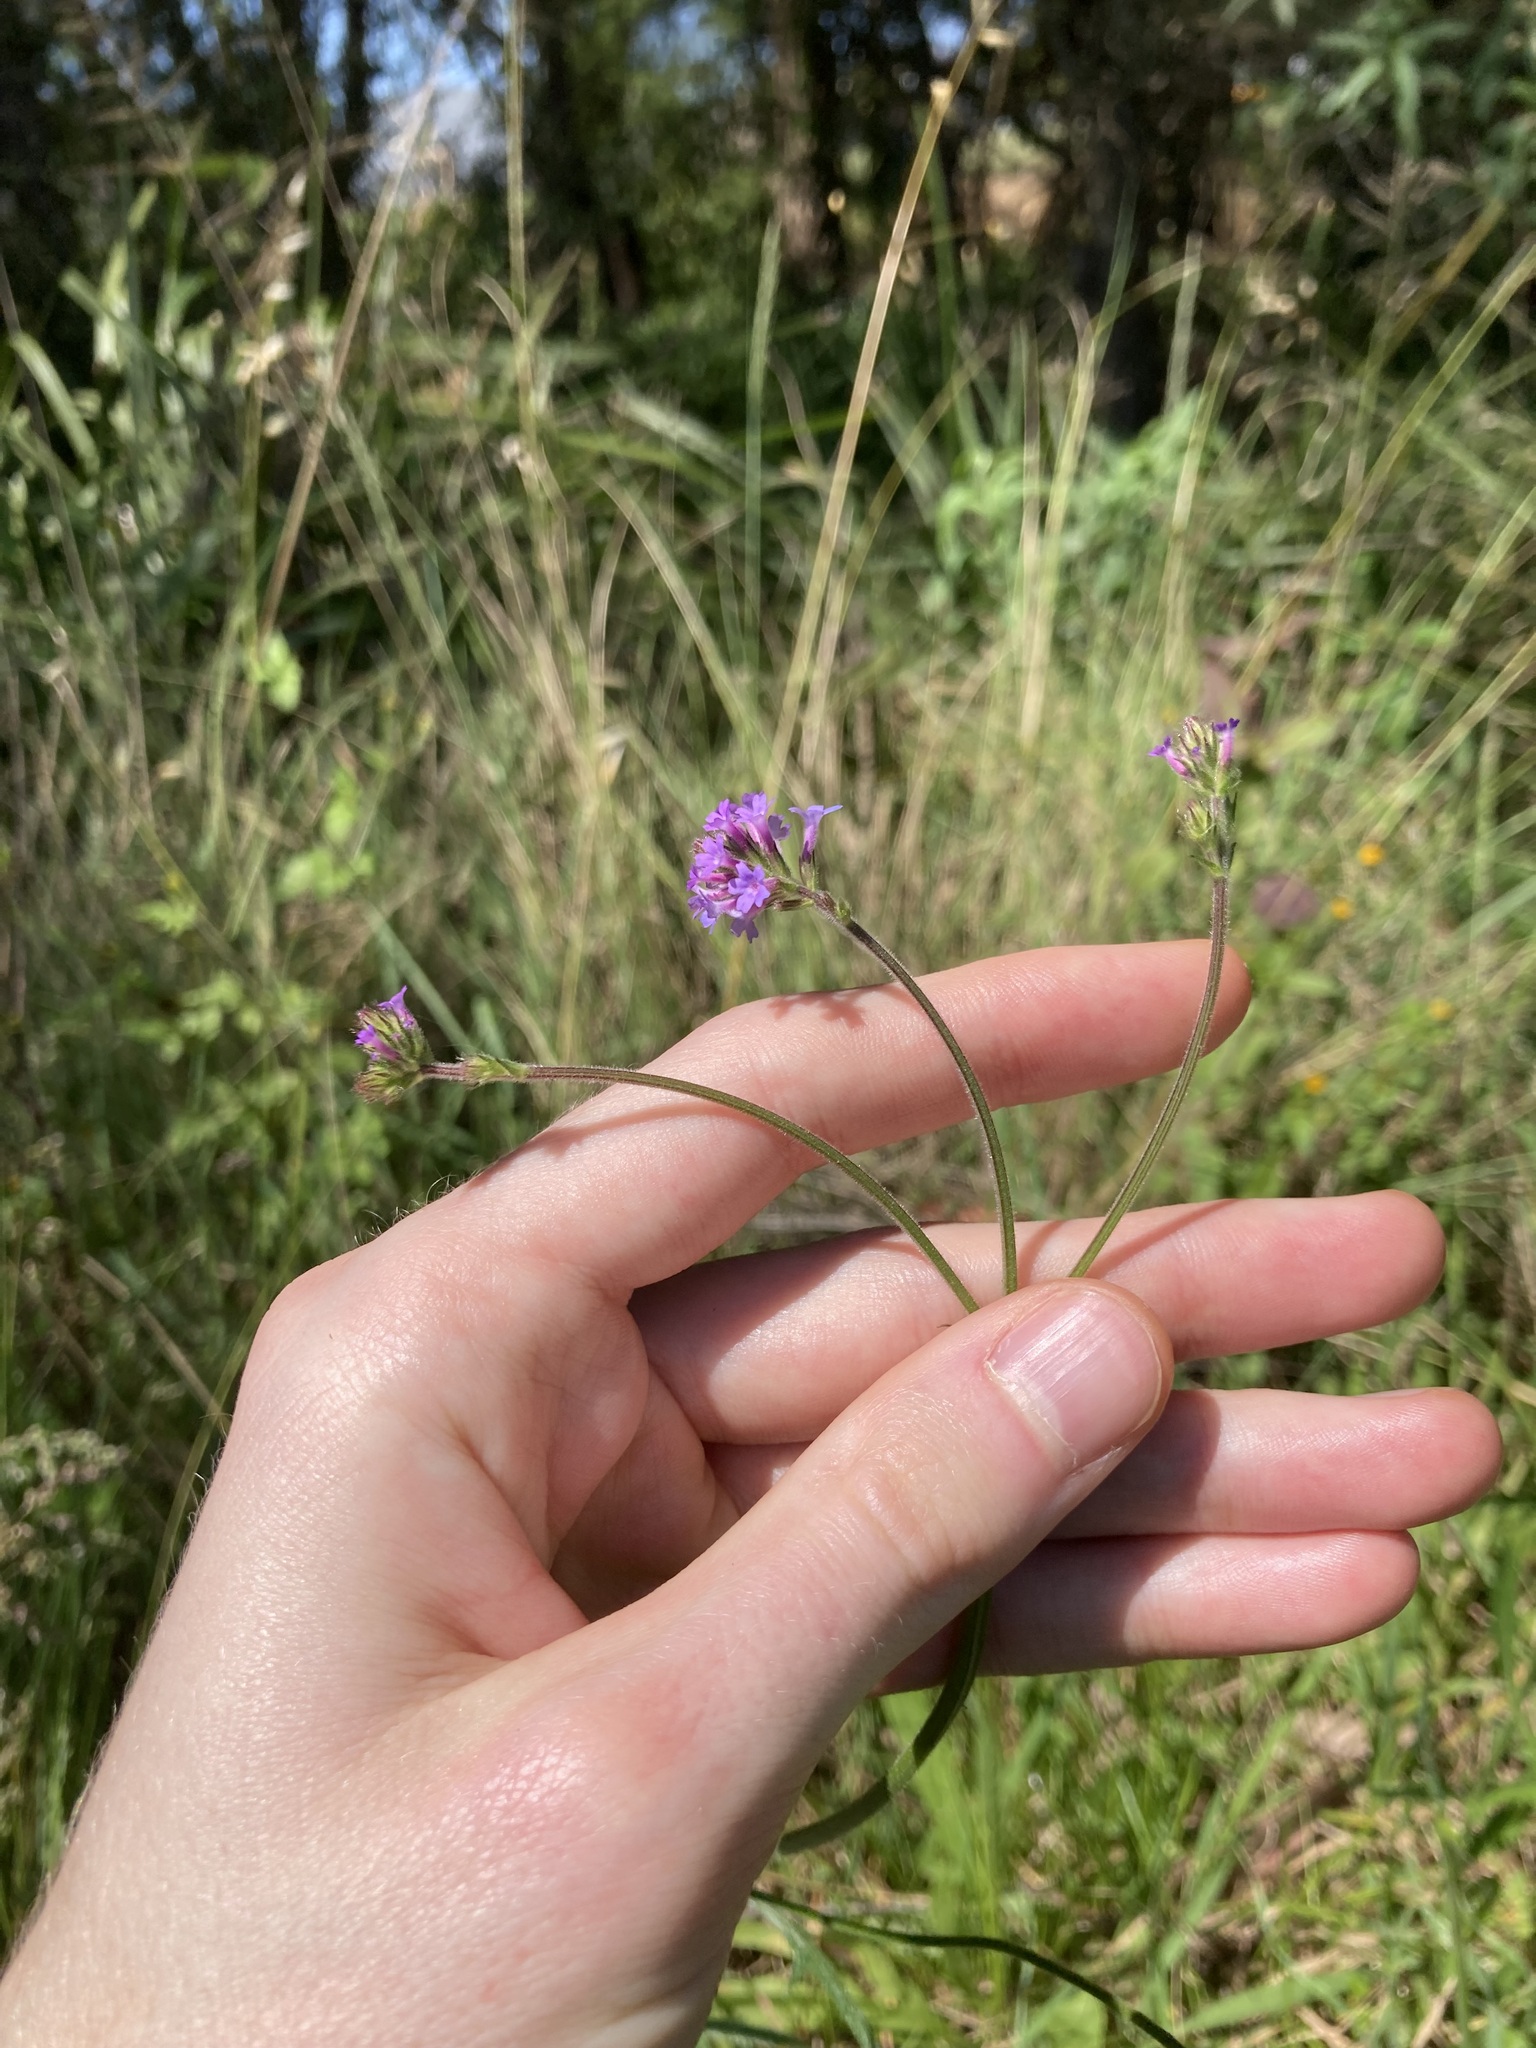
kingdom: Plantae
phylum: Tracheophyta
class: Magnoliopsida
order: Lamiales
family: Verbenaceae
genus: Verbena
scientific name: Verbena brasiliensis
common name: Brazilian vervain
